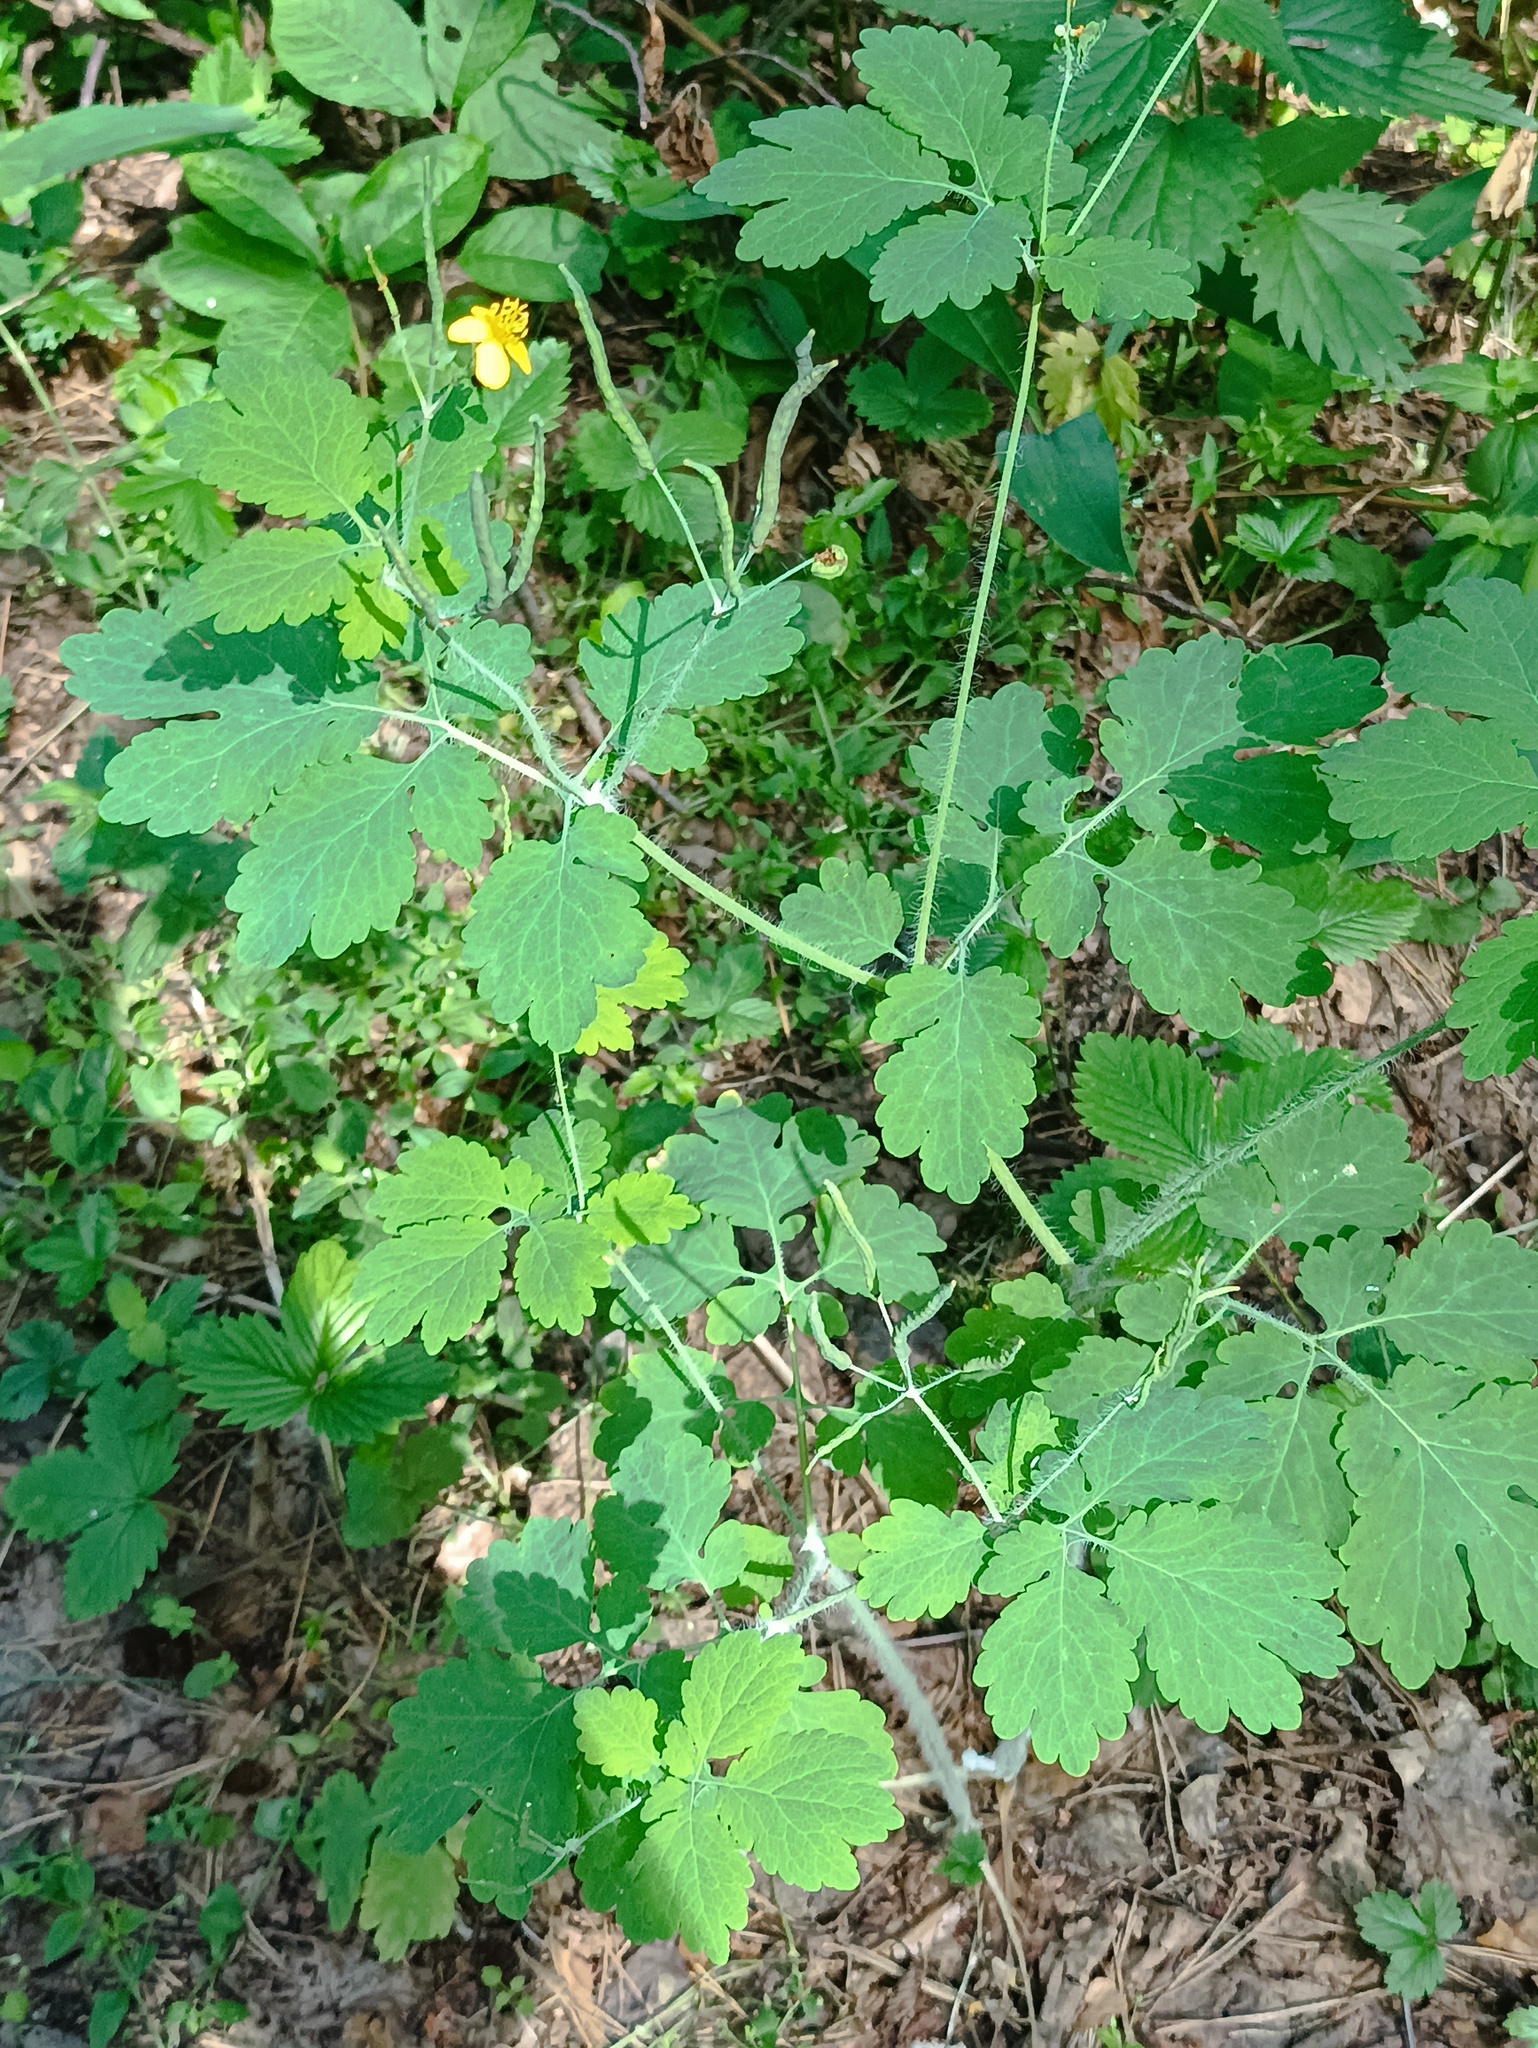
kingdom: Plantae
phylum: Tracheophyta
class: Magnoliopsida
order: Ranunculales
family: Papaveraceae
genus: Chelidonium
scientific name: Chelidonium majus
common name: Greater celandine
